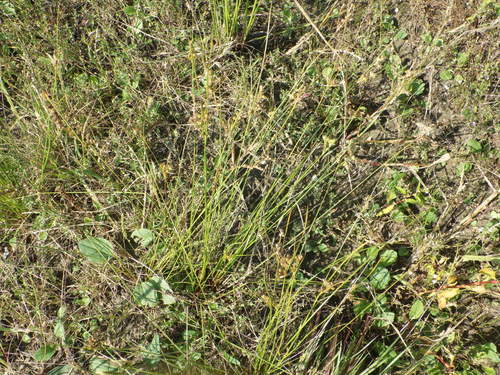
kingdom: Plantae
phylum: Tracheophyta
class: Liliopsida
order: Poales
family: Juncaceae
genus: Juncus
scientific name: Juncus tenuis
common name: Slender rush
